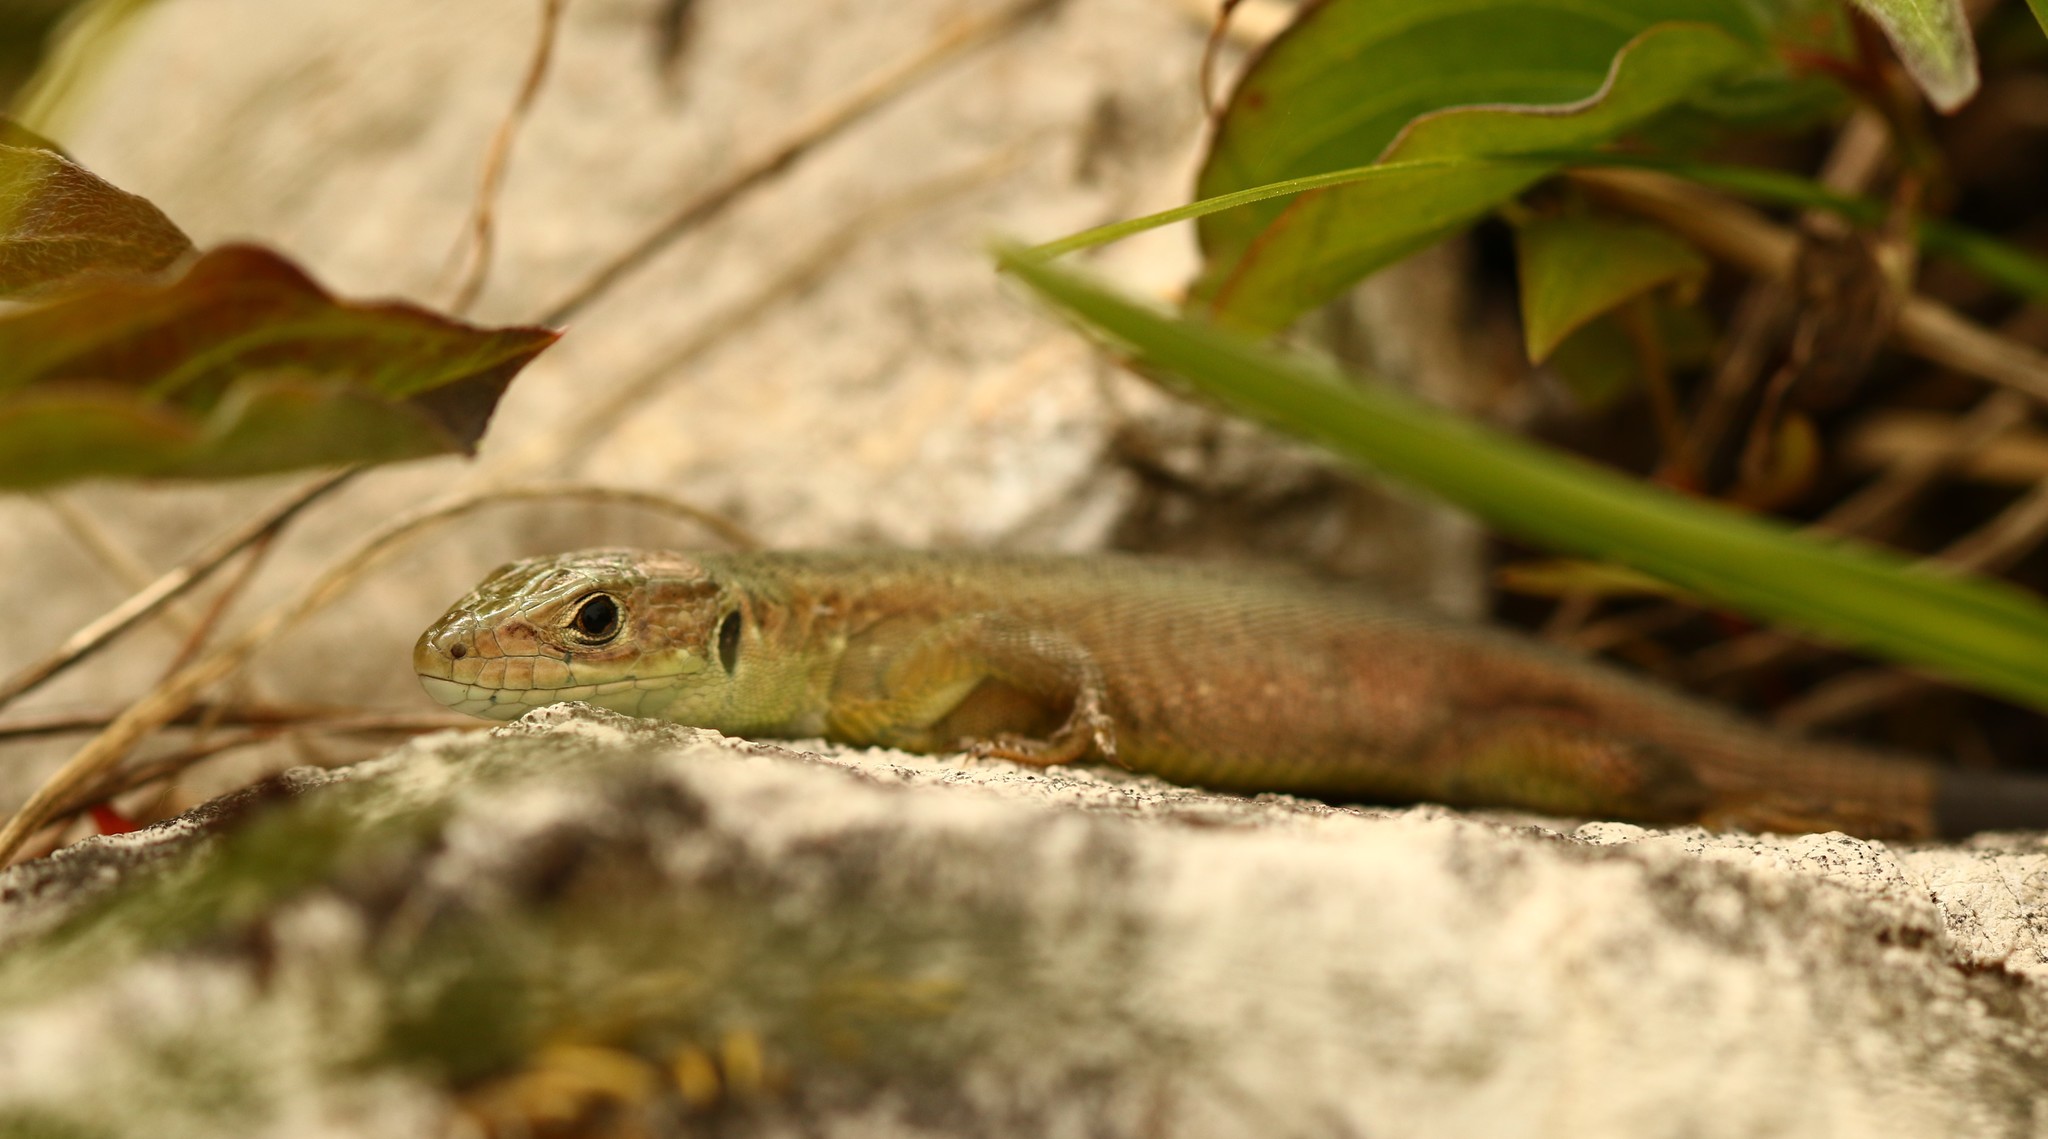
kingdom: Animalia
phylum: Chordata
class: Squamata
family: Lacertidae
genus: Lacerta
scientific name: Lacerta viridis
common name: European green lizard
